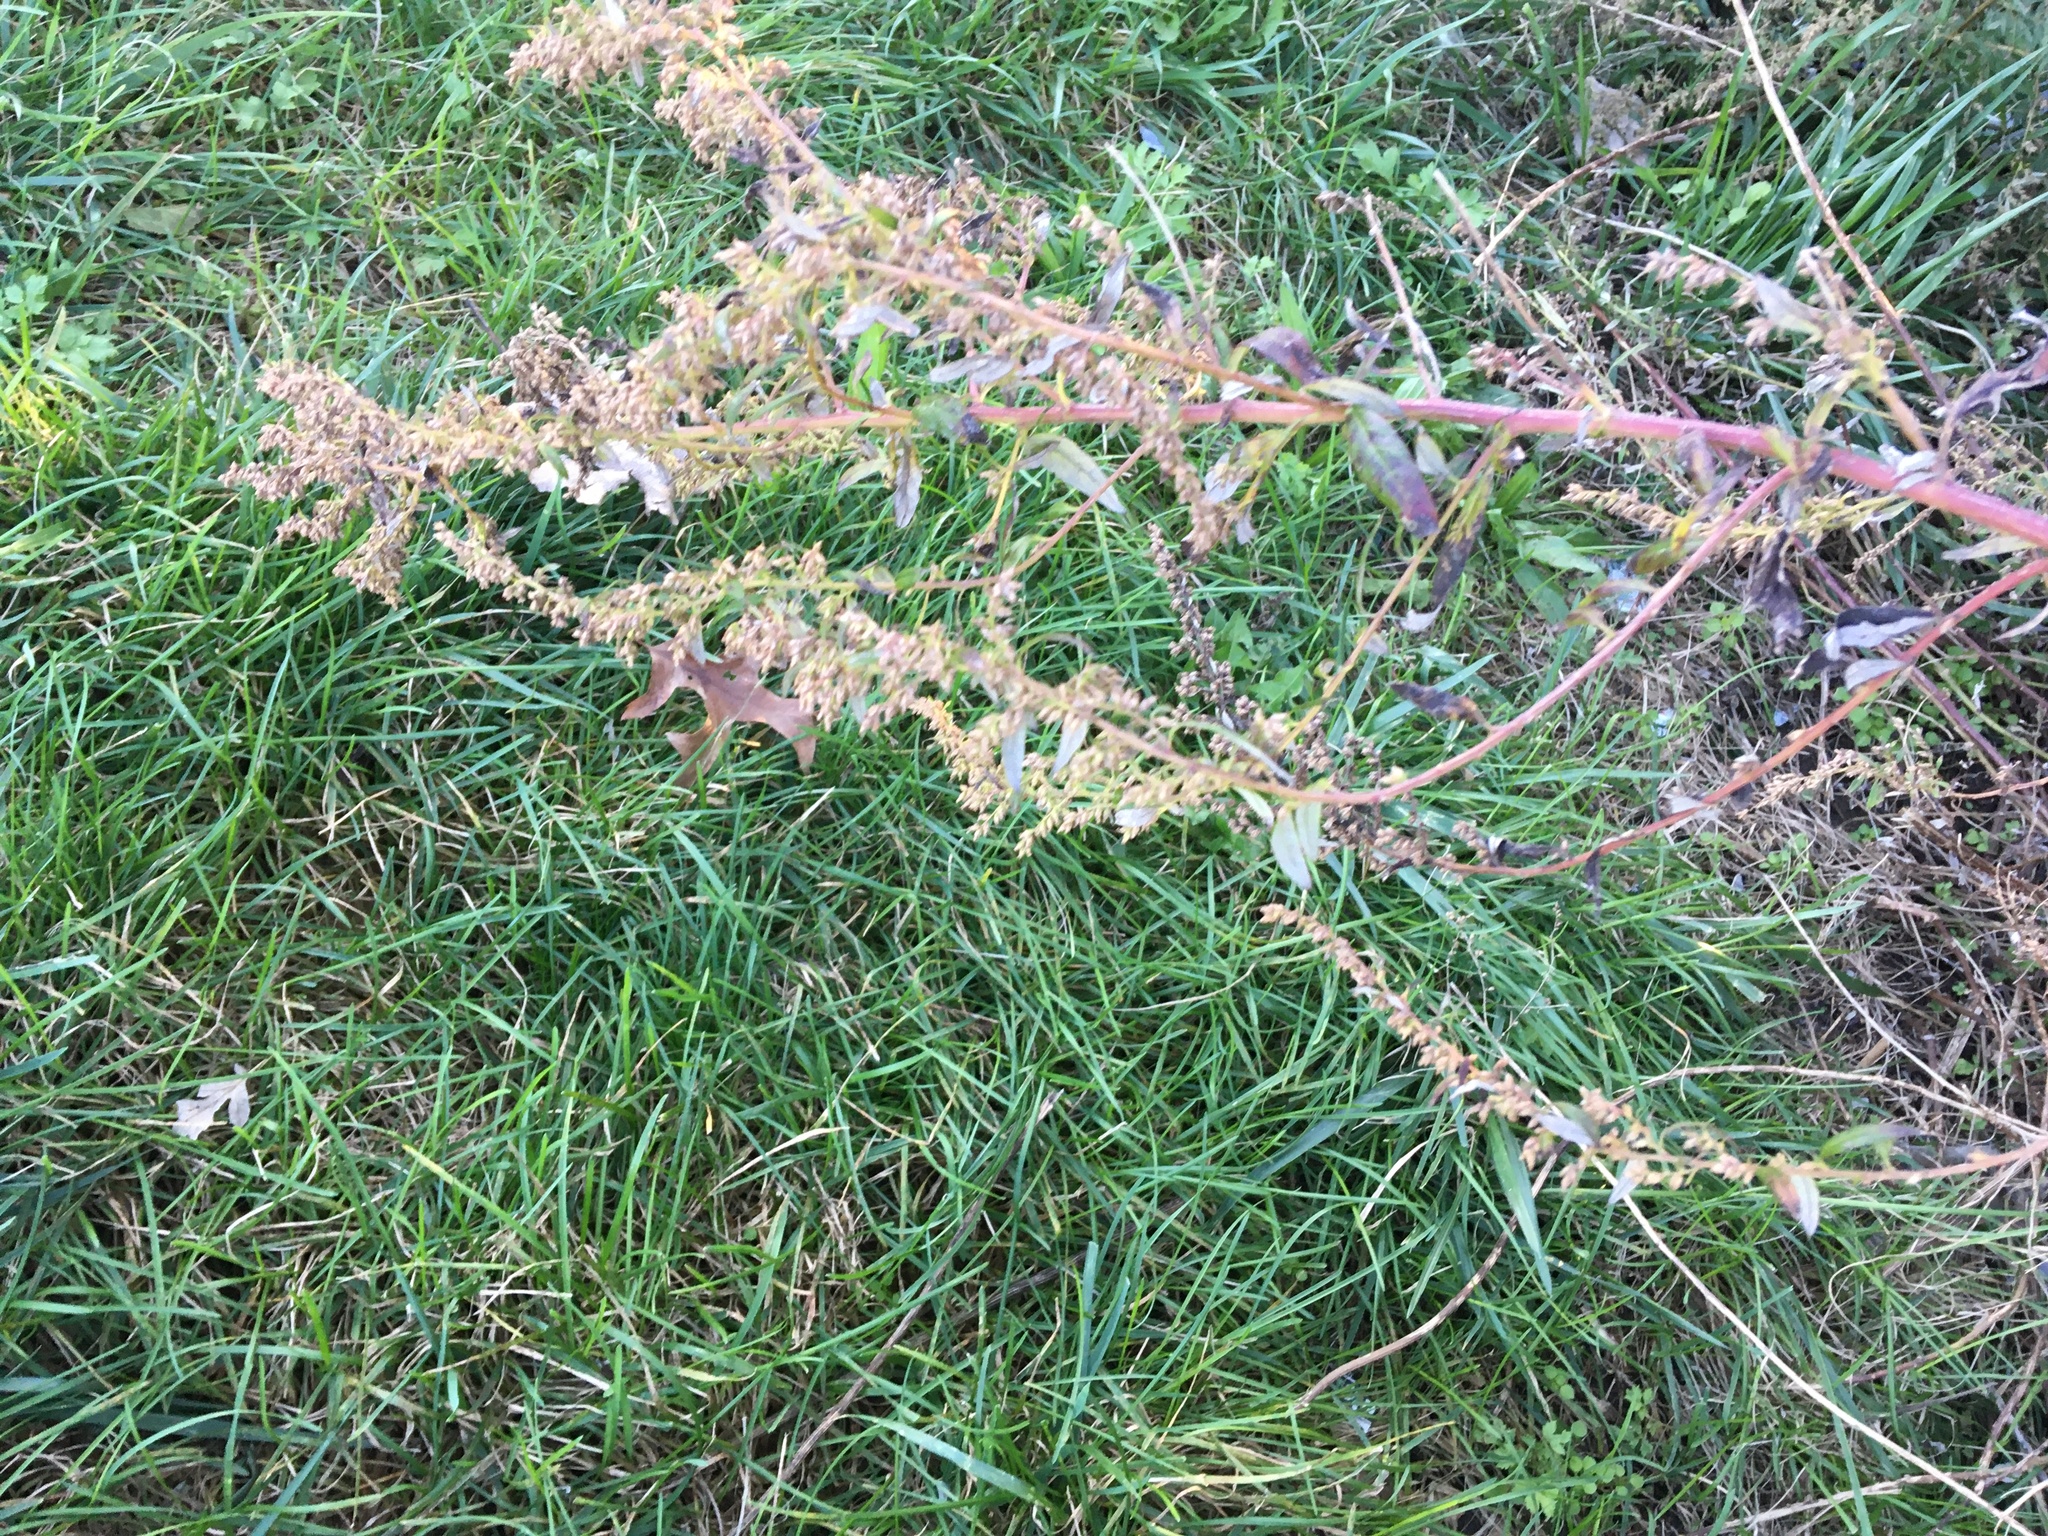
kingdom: Plantae
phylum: Tracheophyta
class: Magnoliopsida
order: Asterales
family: Asteraceae
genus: Artemisia
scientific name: Artemisia vulgaris
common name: Mugwort
